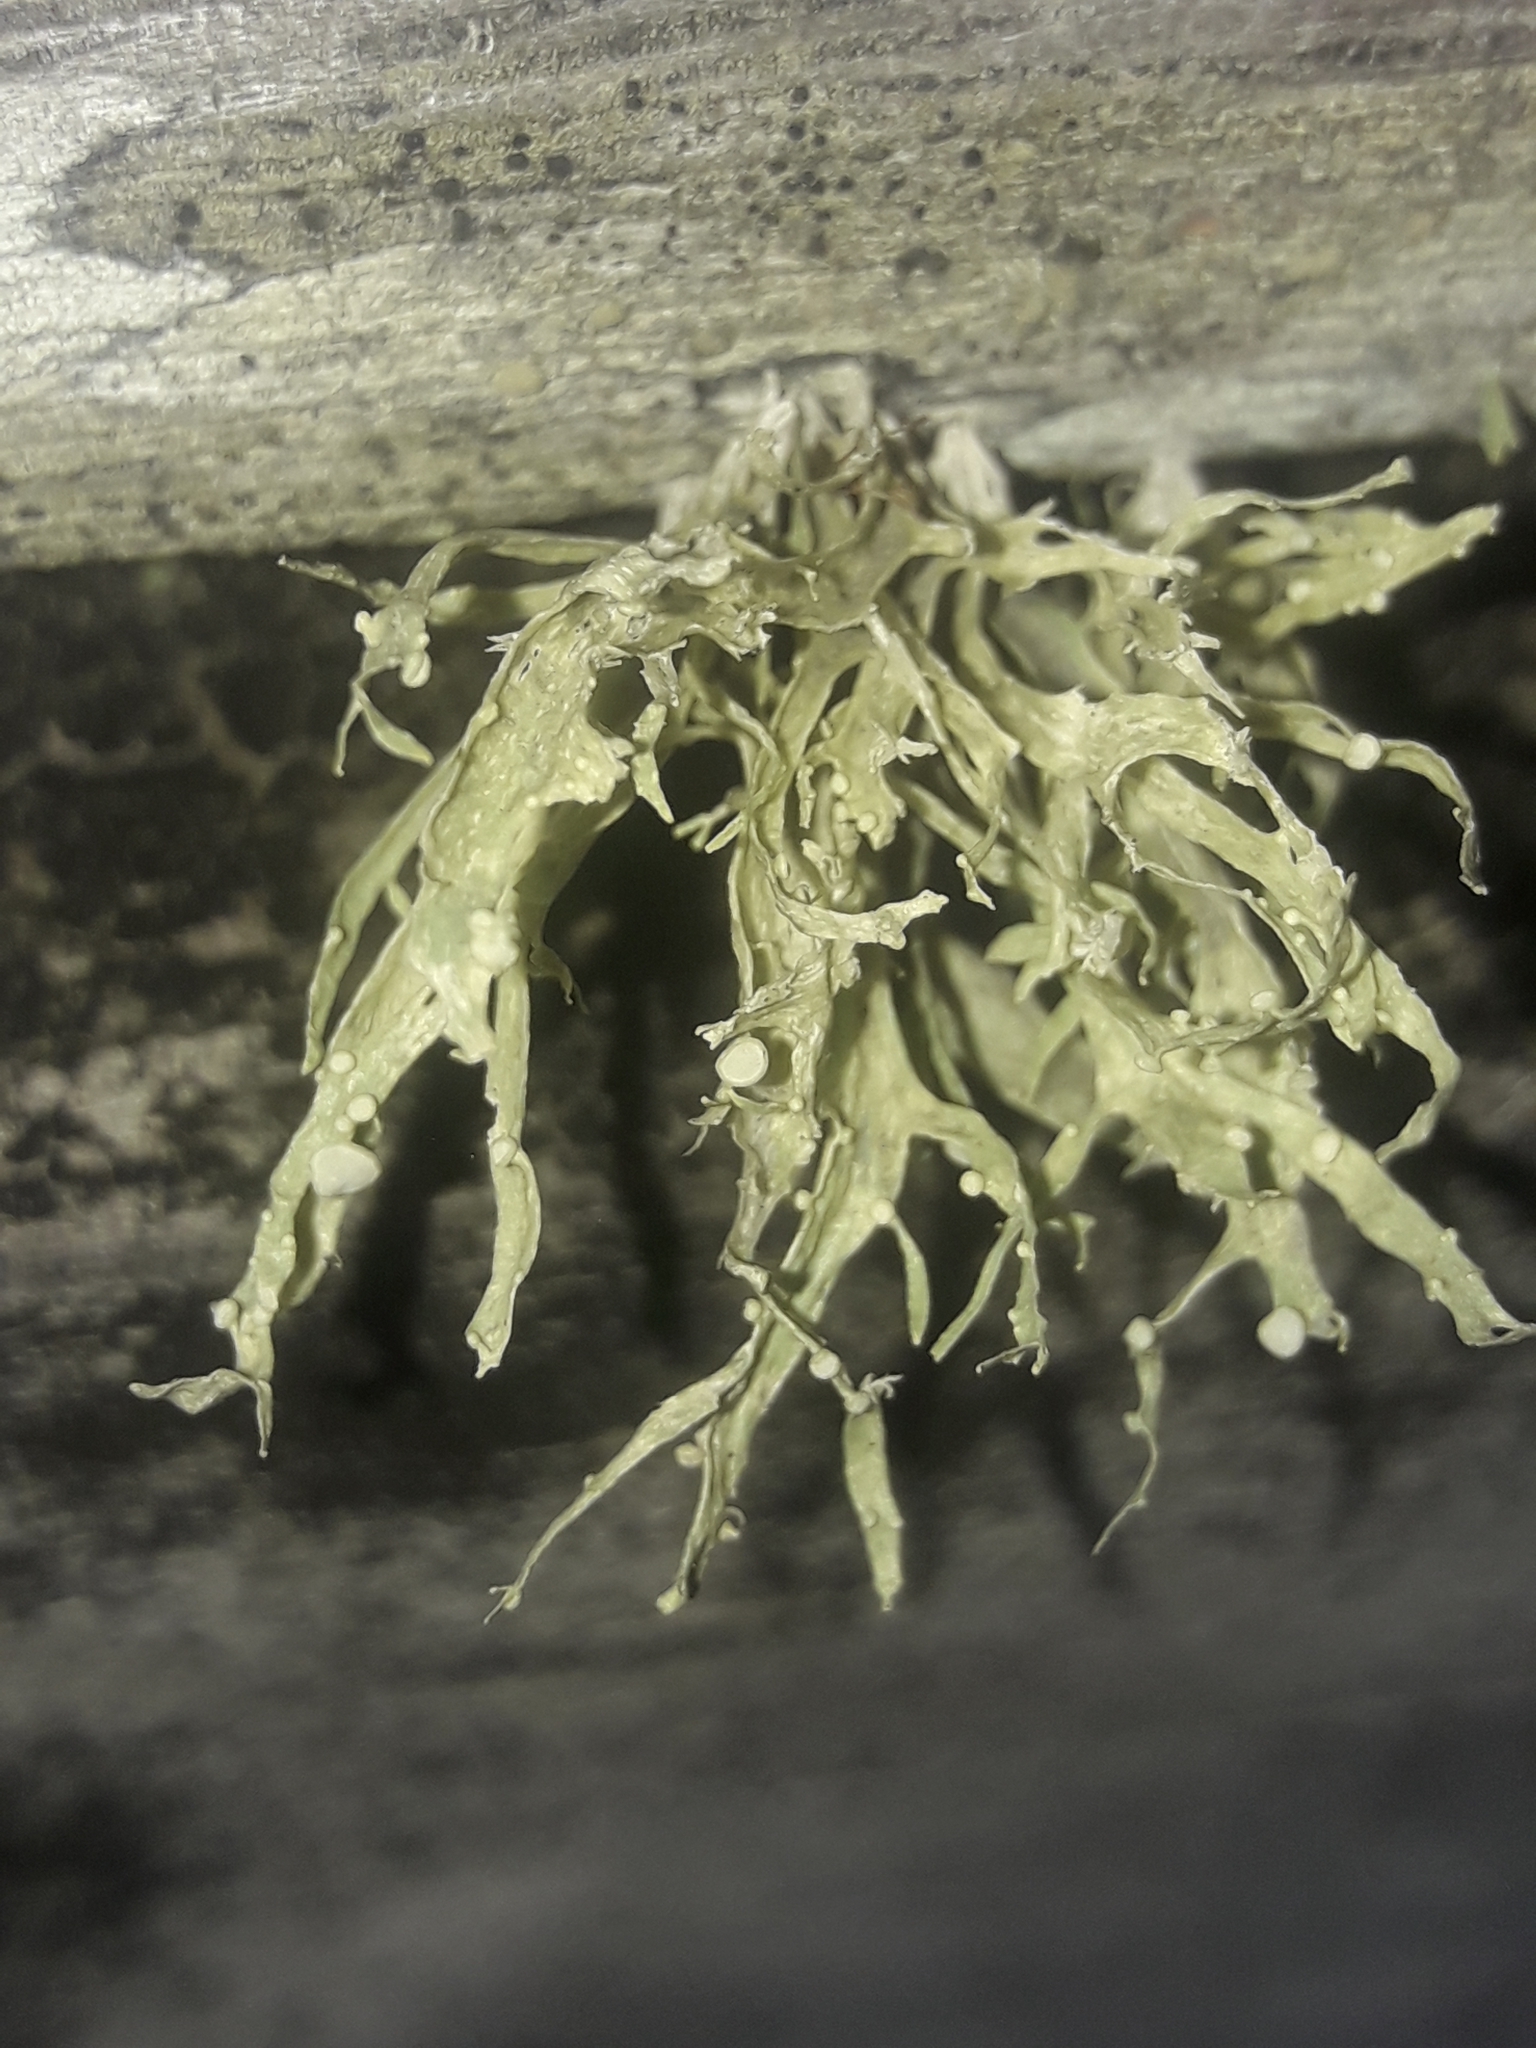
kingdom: Fungi
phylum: Ascomycota
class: Lecanoromycetes
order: Lecanorales
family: Ramalinaceae
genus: Ramalina
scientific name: Ramalina celastri
